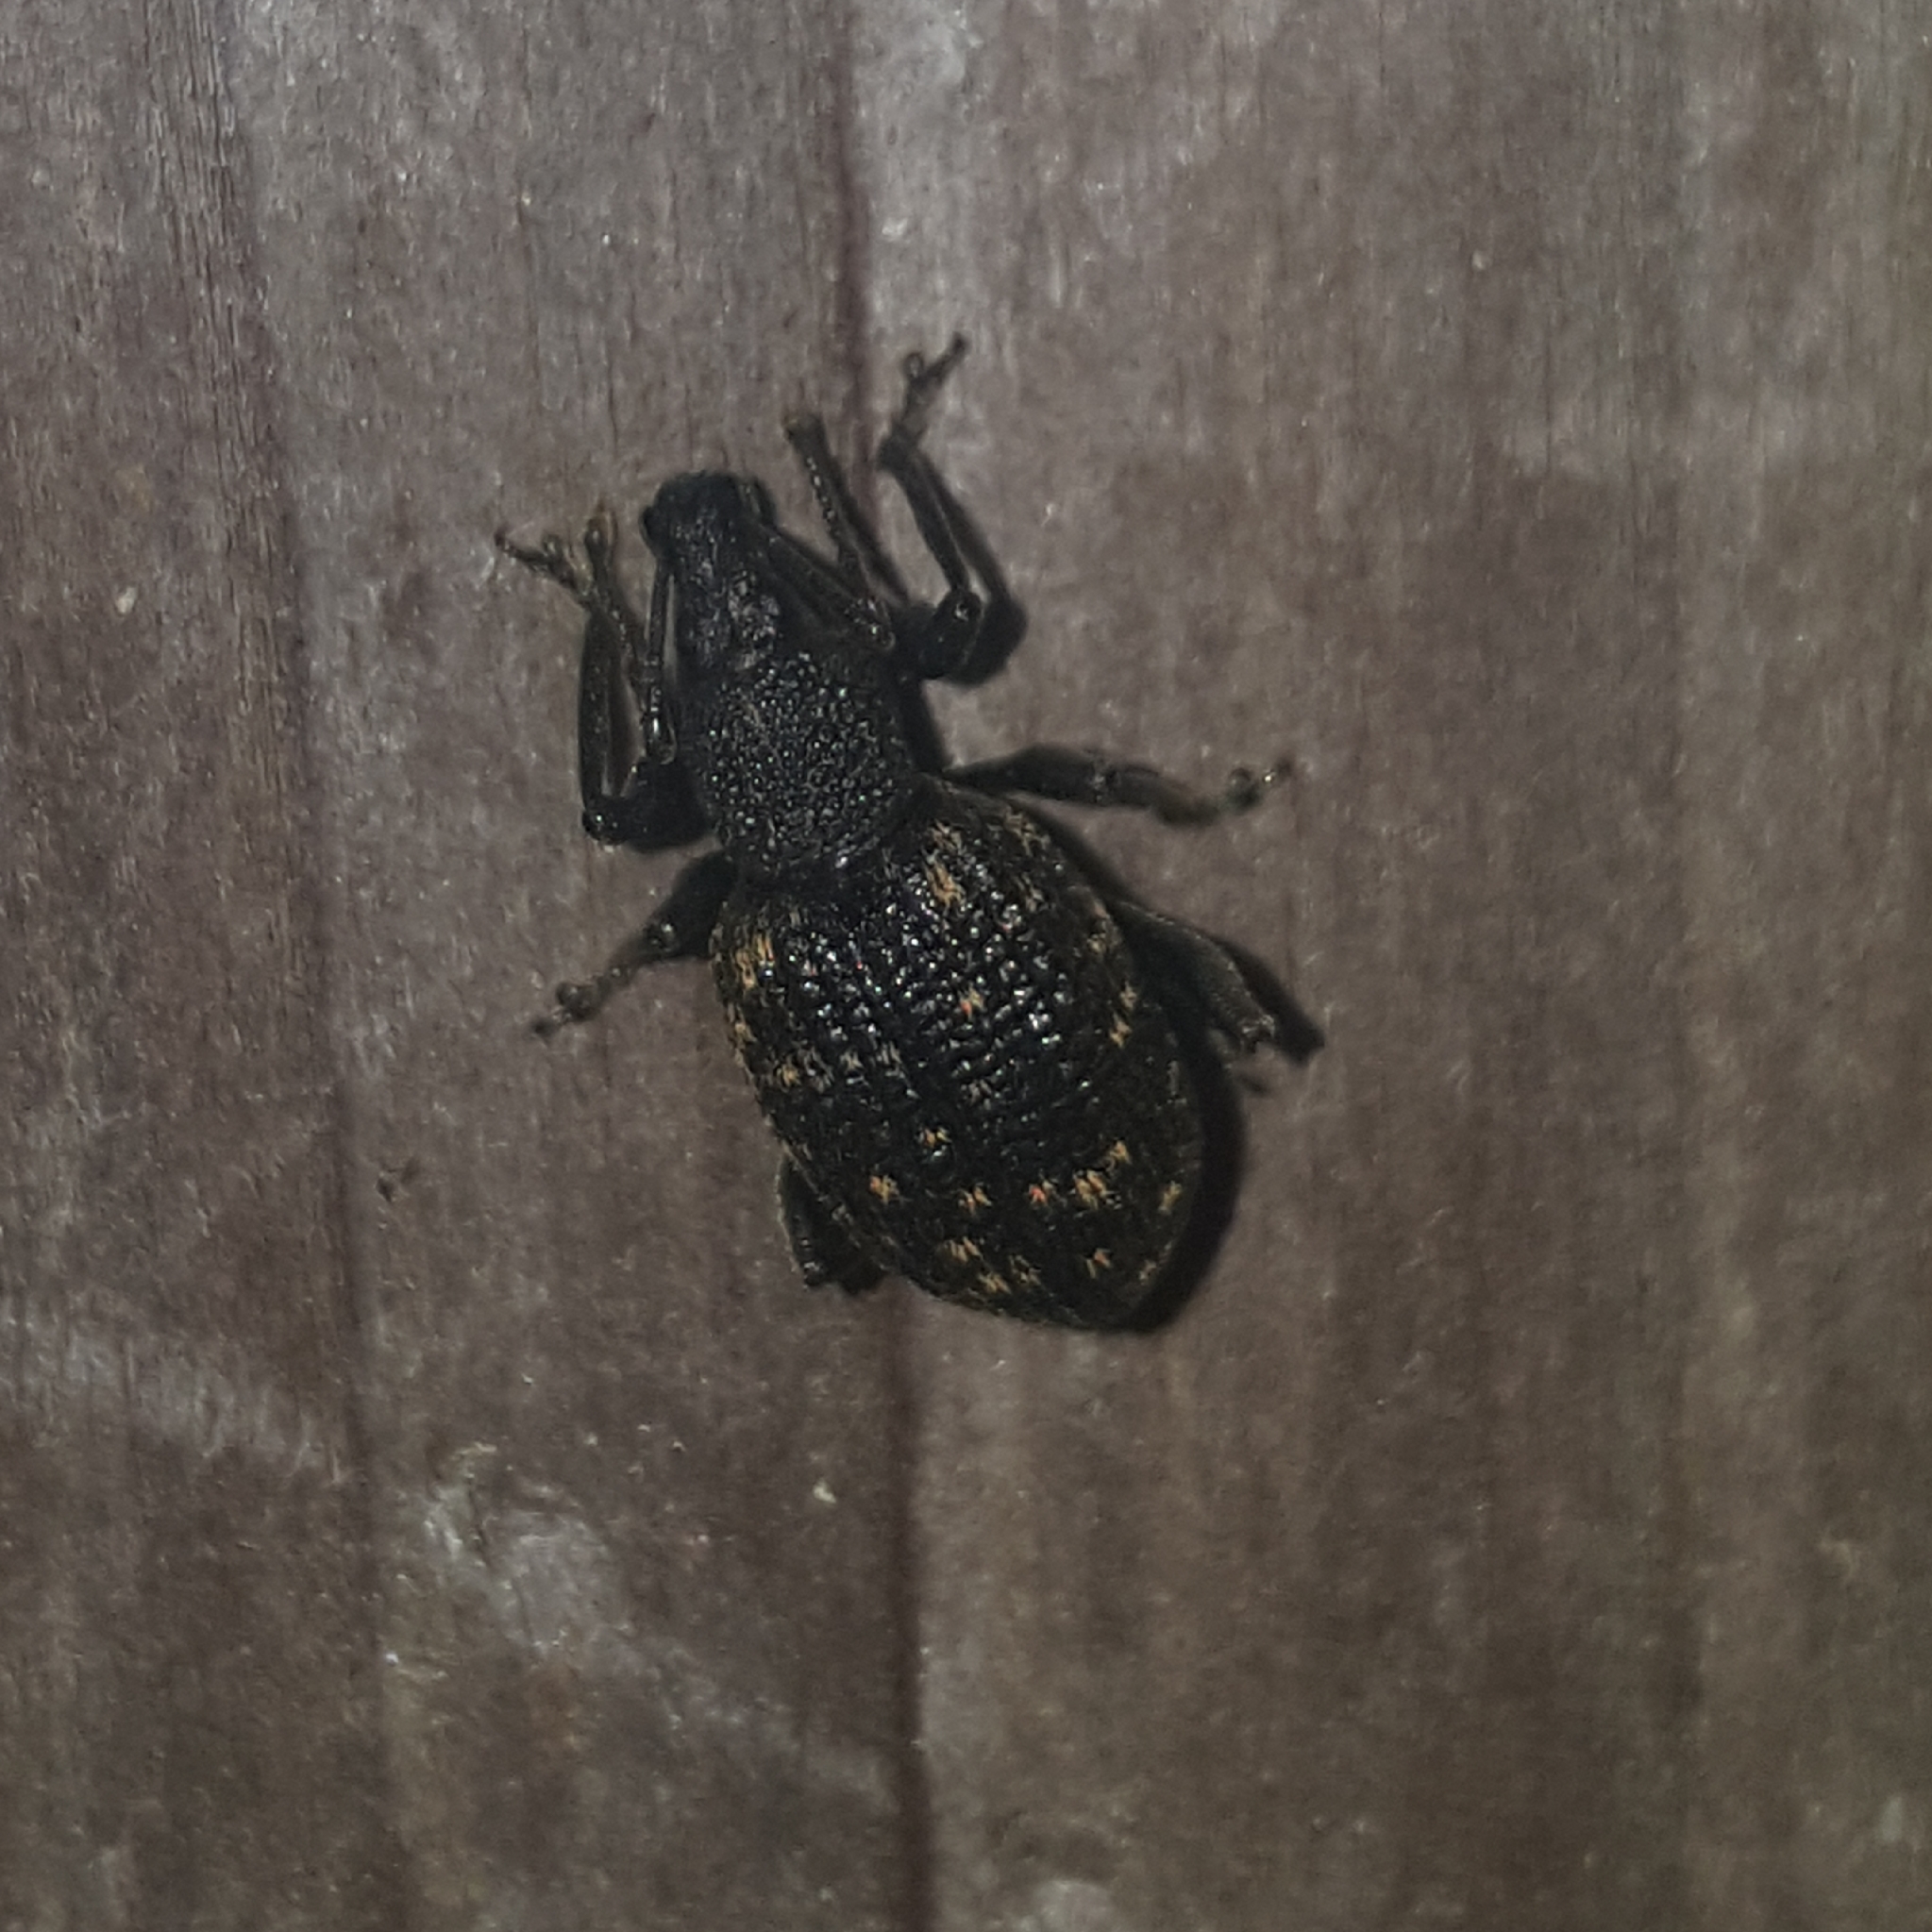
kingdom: Animalia
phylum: Arthropoda
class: Insecta
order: Coleoptera
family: Curculionidae
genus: Otiorhynchus
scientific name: Otiorhynchus sulcatus
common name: Black vine weevil
